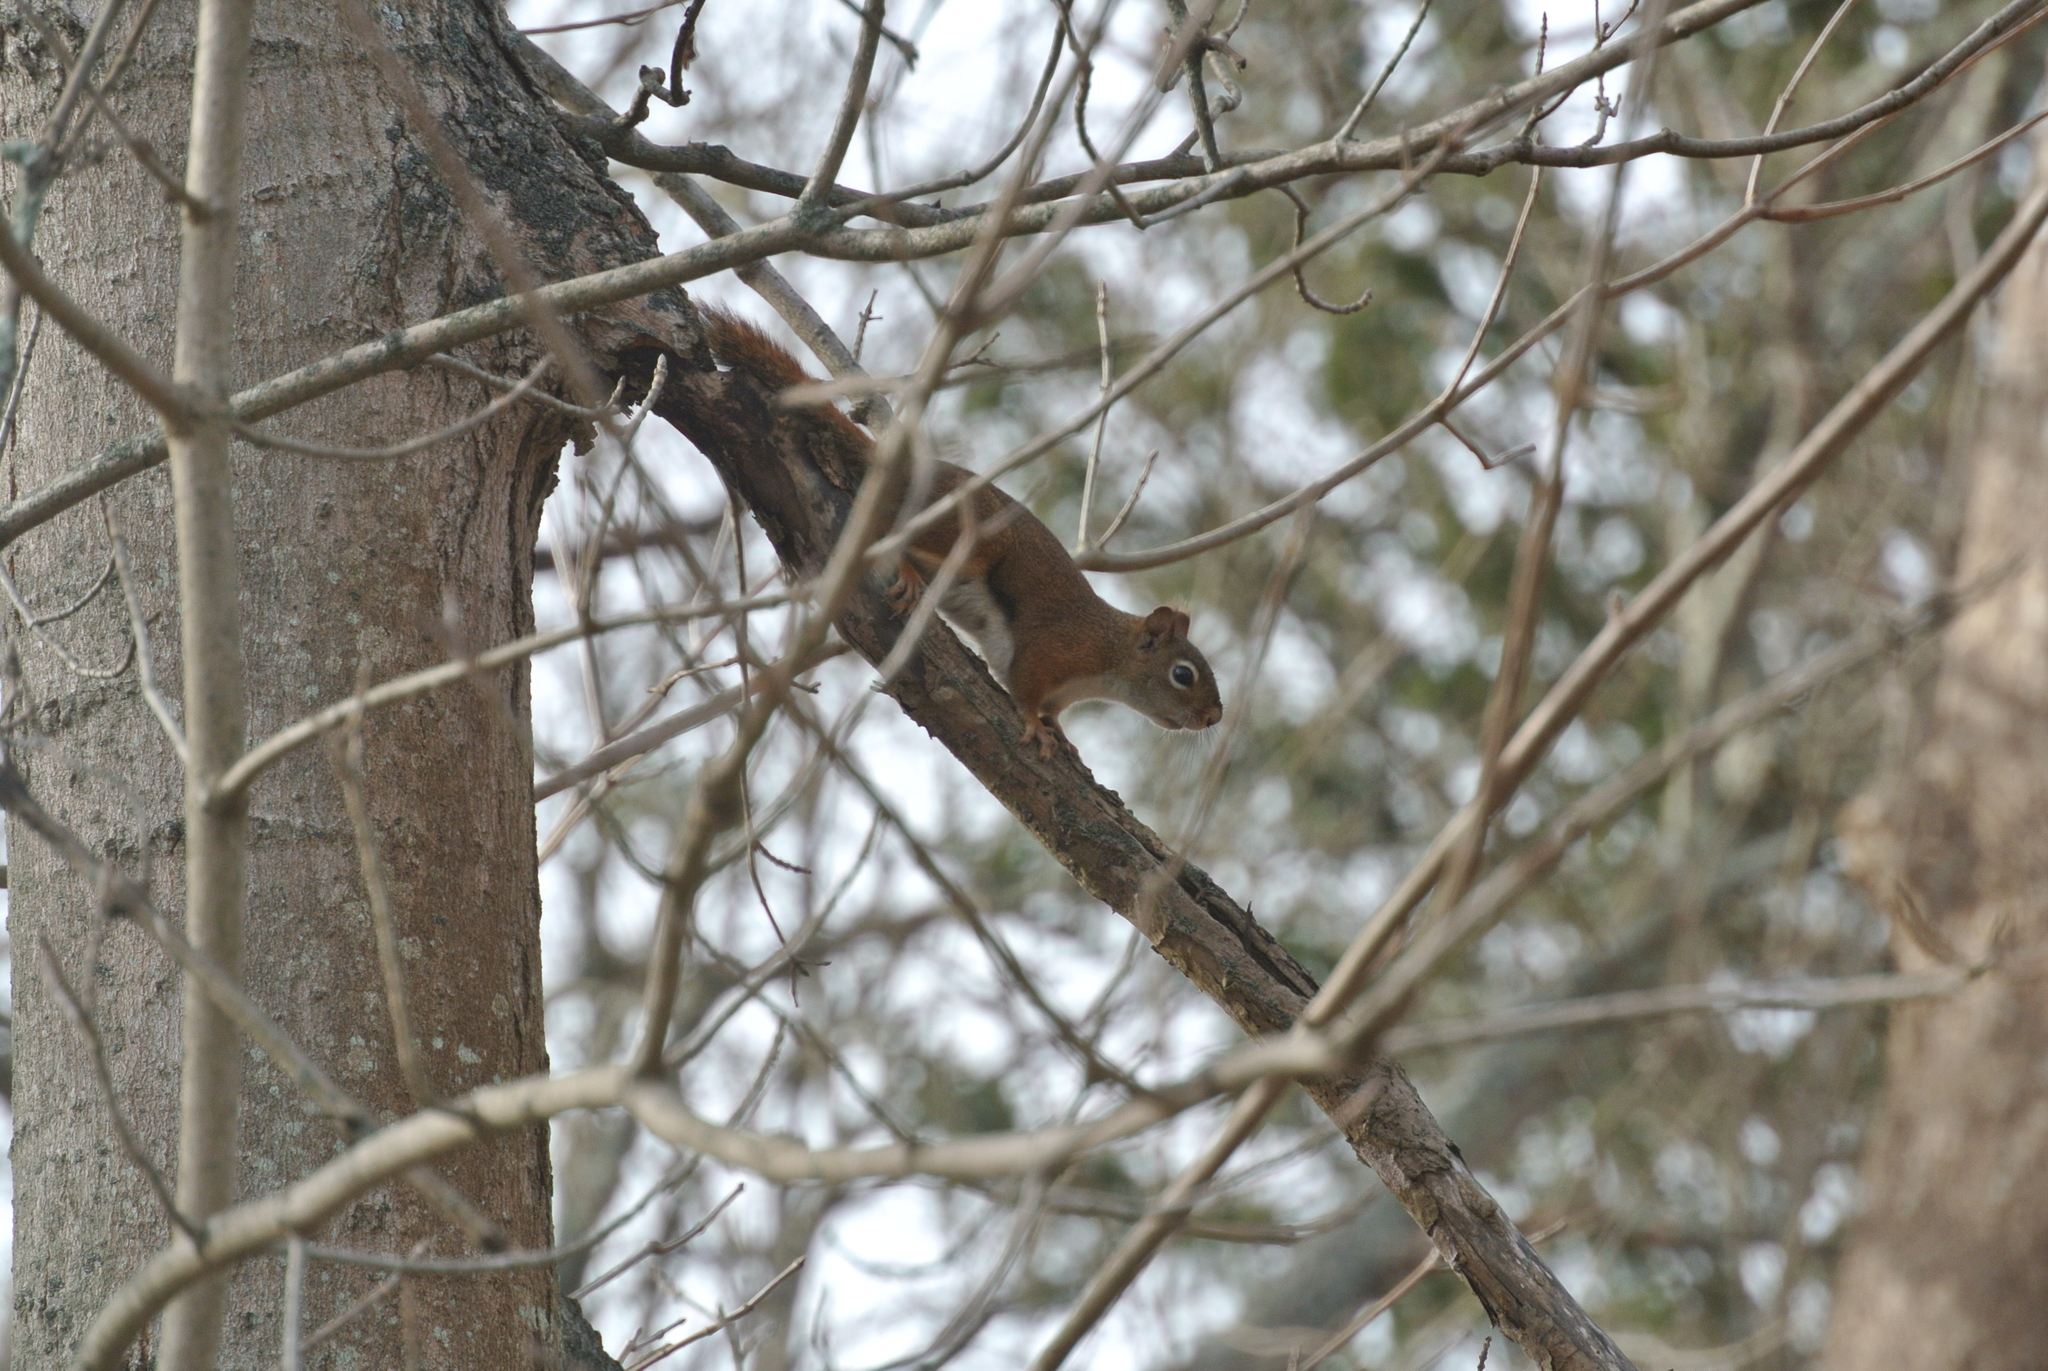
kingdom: Animalia
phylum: Chordata
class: Mammalia
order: Rodentia
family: Sciuridae
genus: Tamiasciurus
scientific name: Tamiasciurus hudsonicus
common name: Red squirrel
